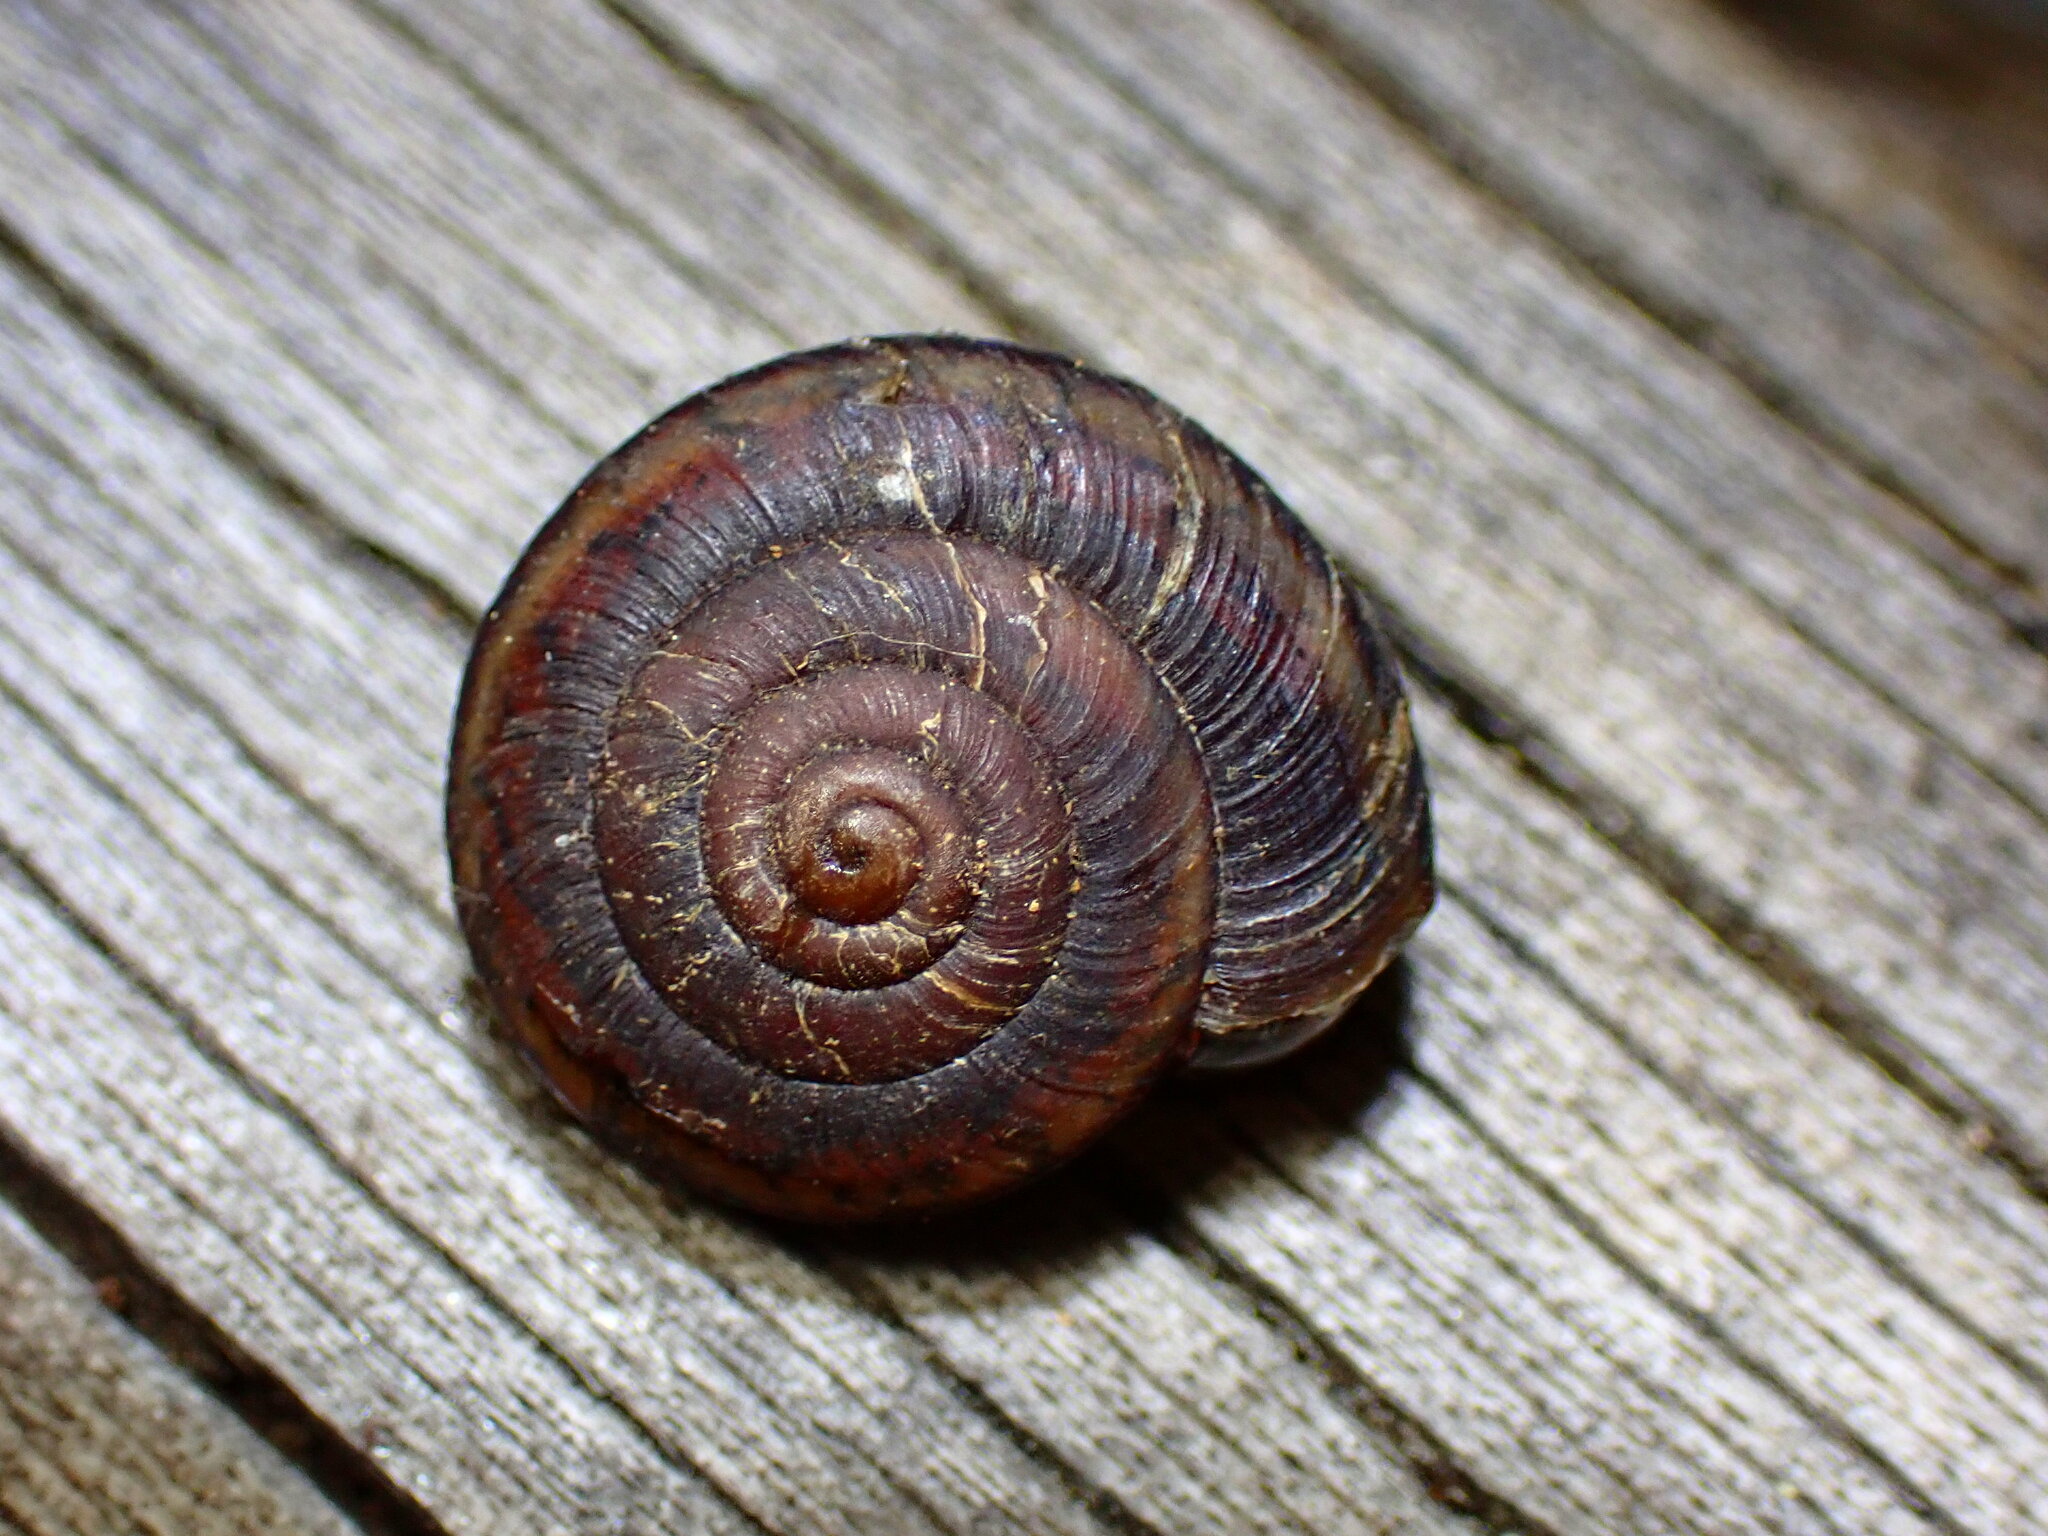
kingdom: Animalia
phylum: Mollusca
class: Gastropoda
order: Stylommatophora
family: Xanthonychidae
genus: Monadenia
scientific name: Monadenia mormonum
